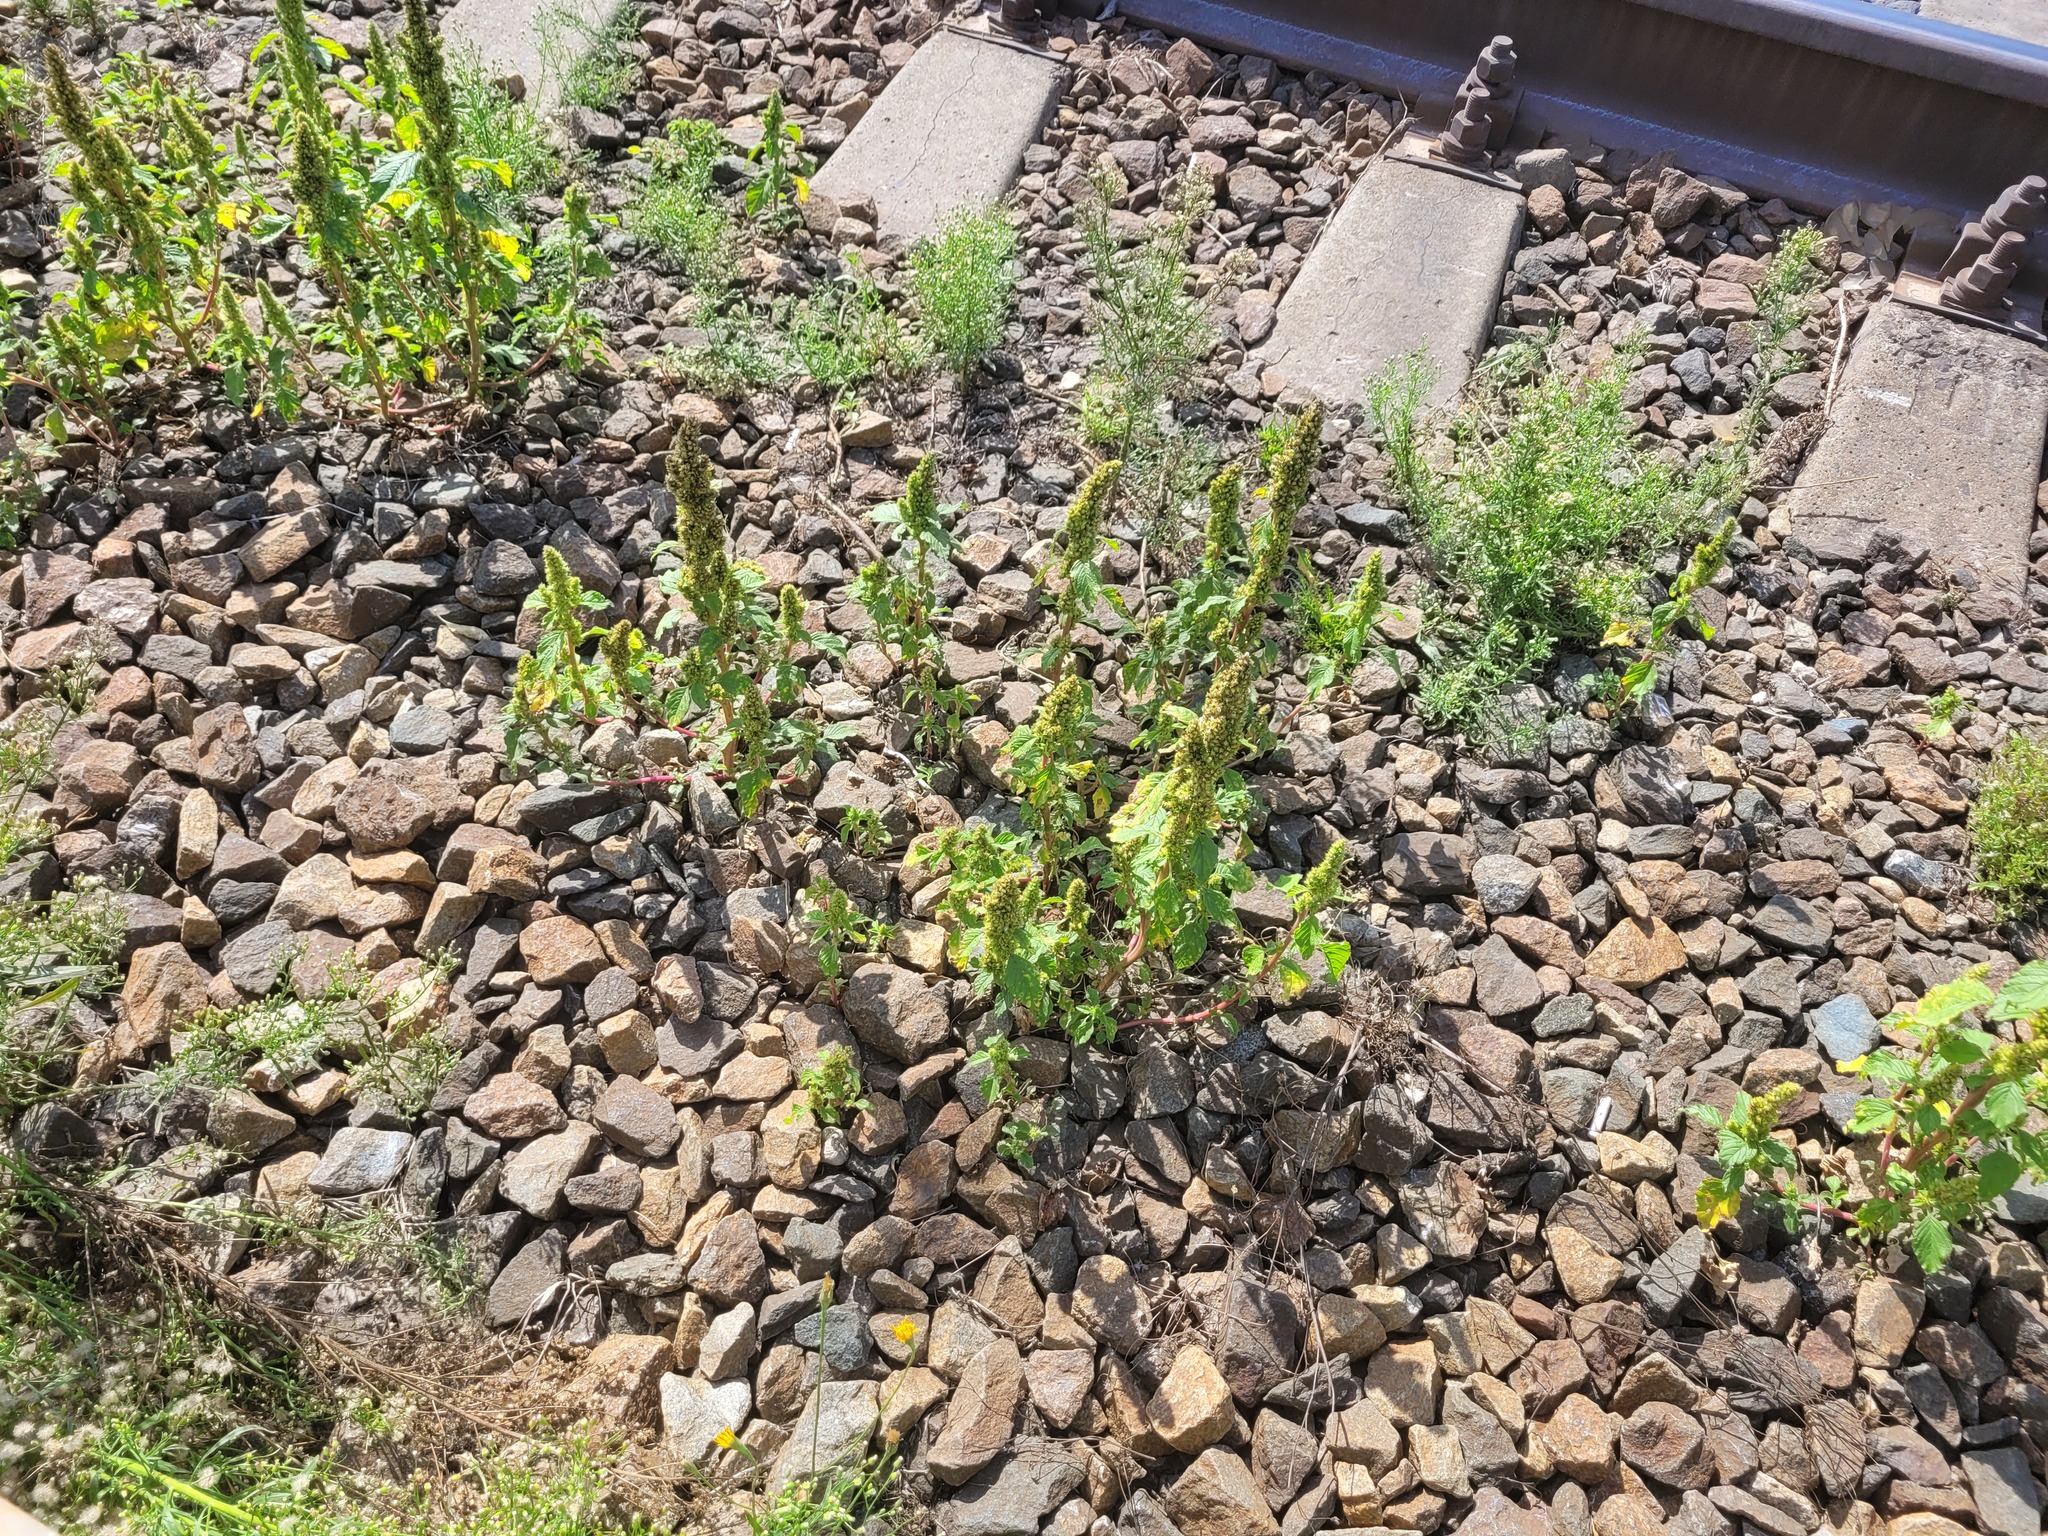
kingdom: Plantae
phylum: Tracheophyta
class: Magnoliopsida
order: Caryophyllales
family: Amaranthaceae
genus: Amaranthus
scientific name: Amaranthus retroflexus
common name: Redroot amaranth
